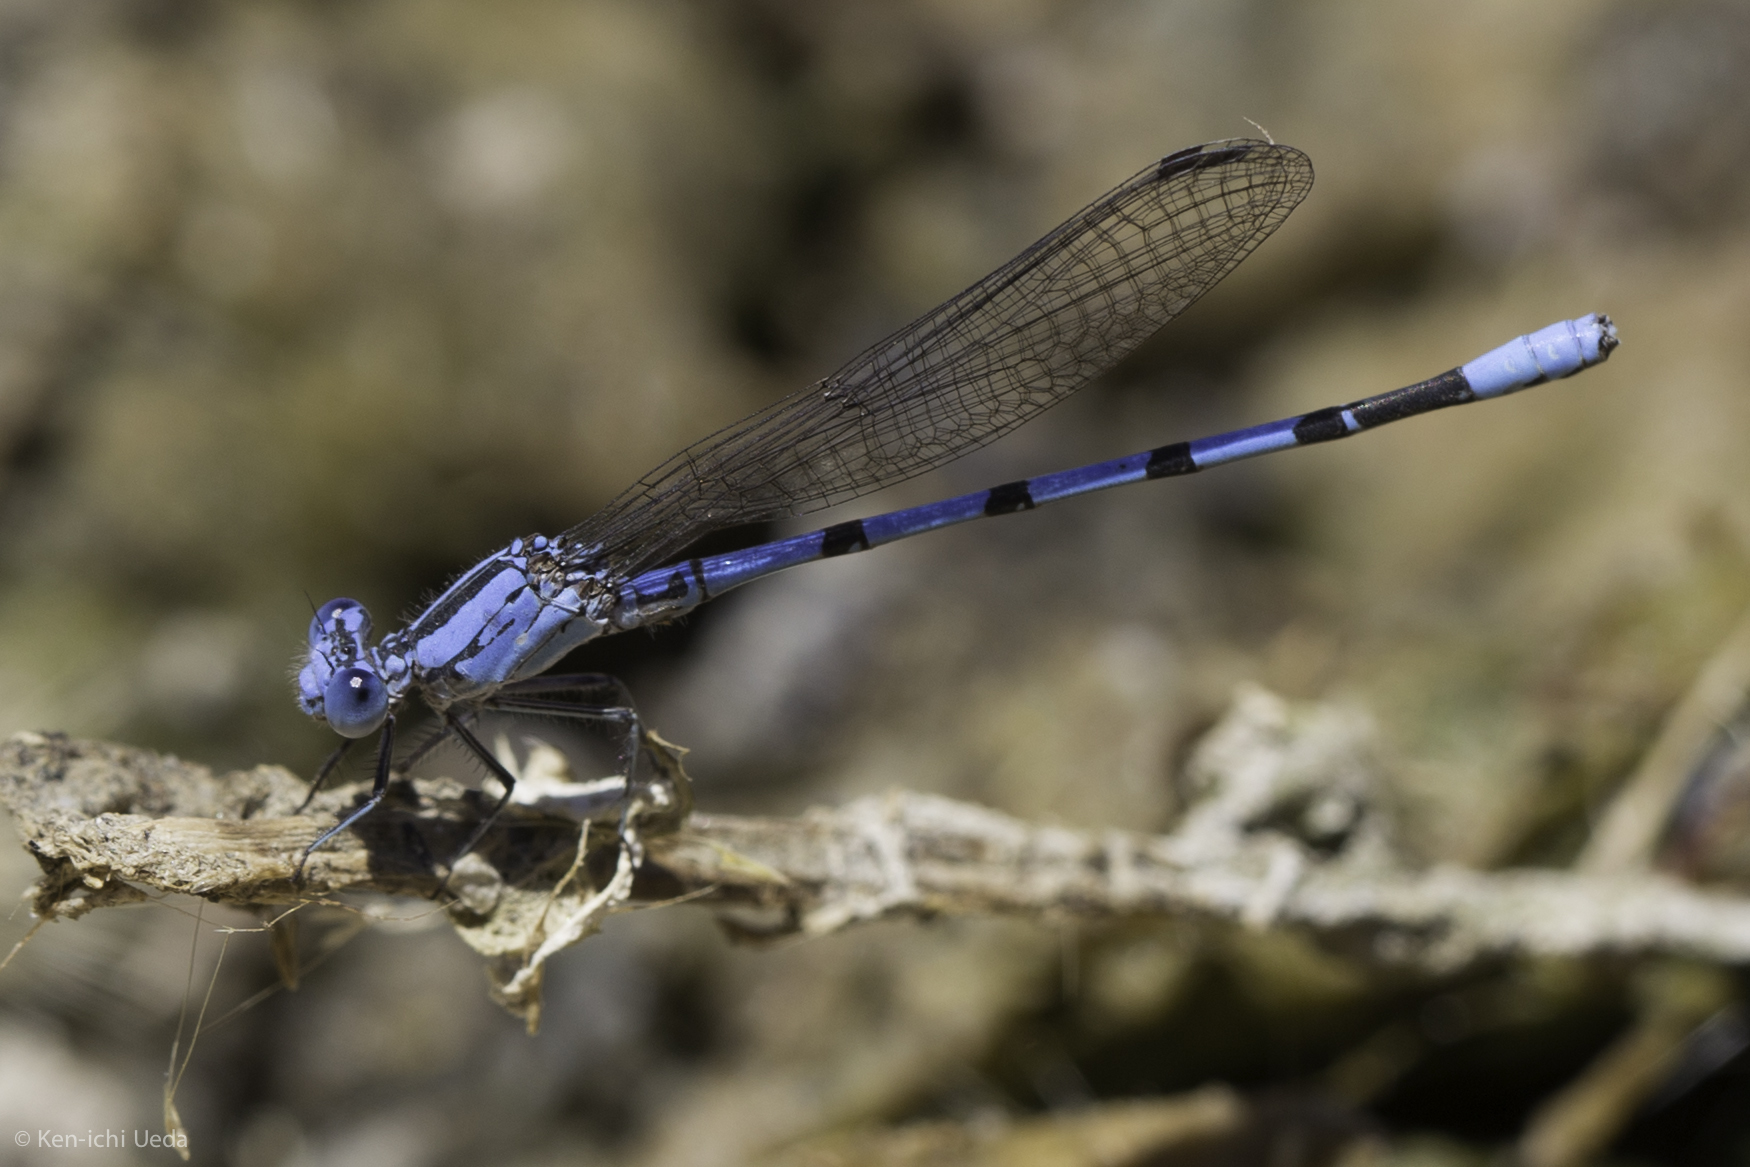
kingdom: Animalia
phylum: Arthropoda
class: Insecta
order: Odonata
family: Coenagrionidae
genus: Argia
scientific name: Argia agrioides
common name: California dancer
